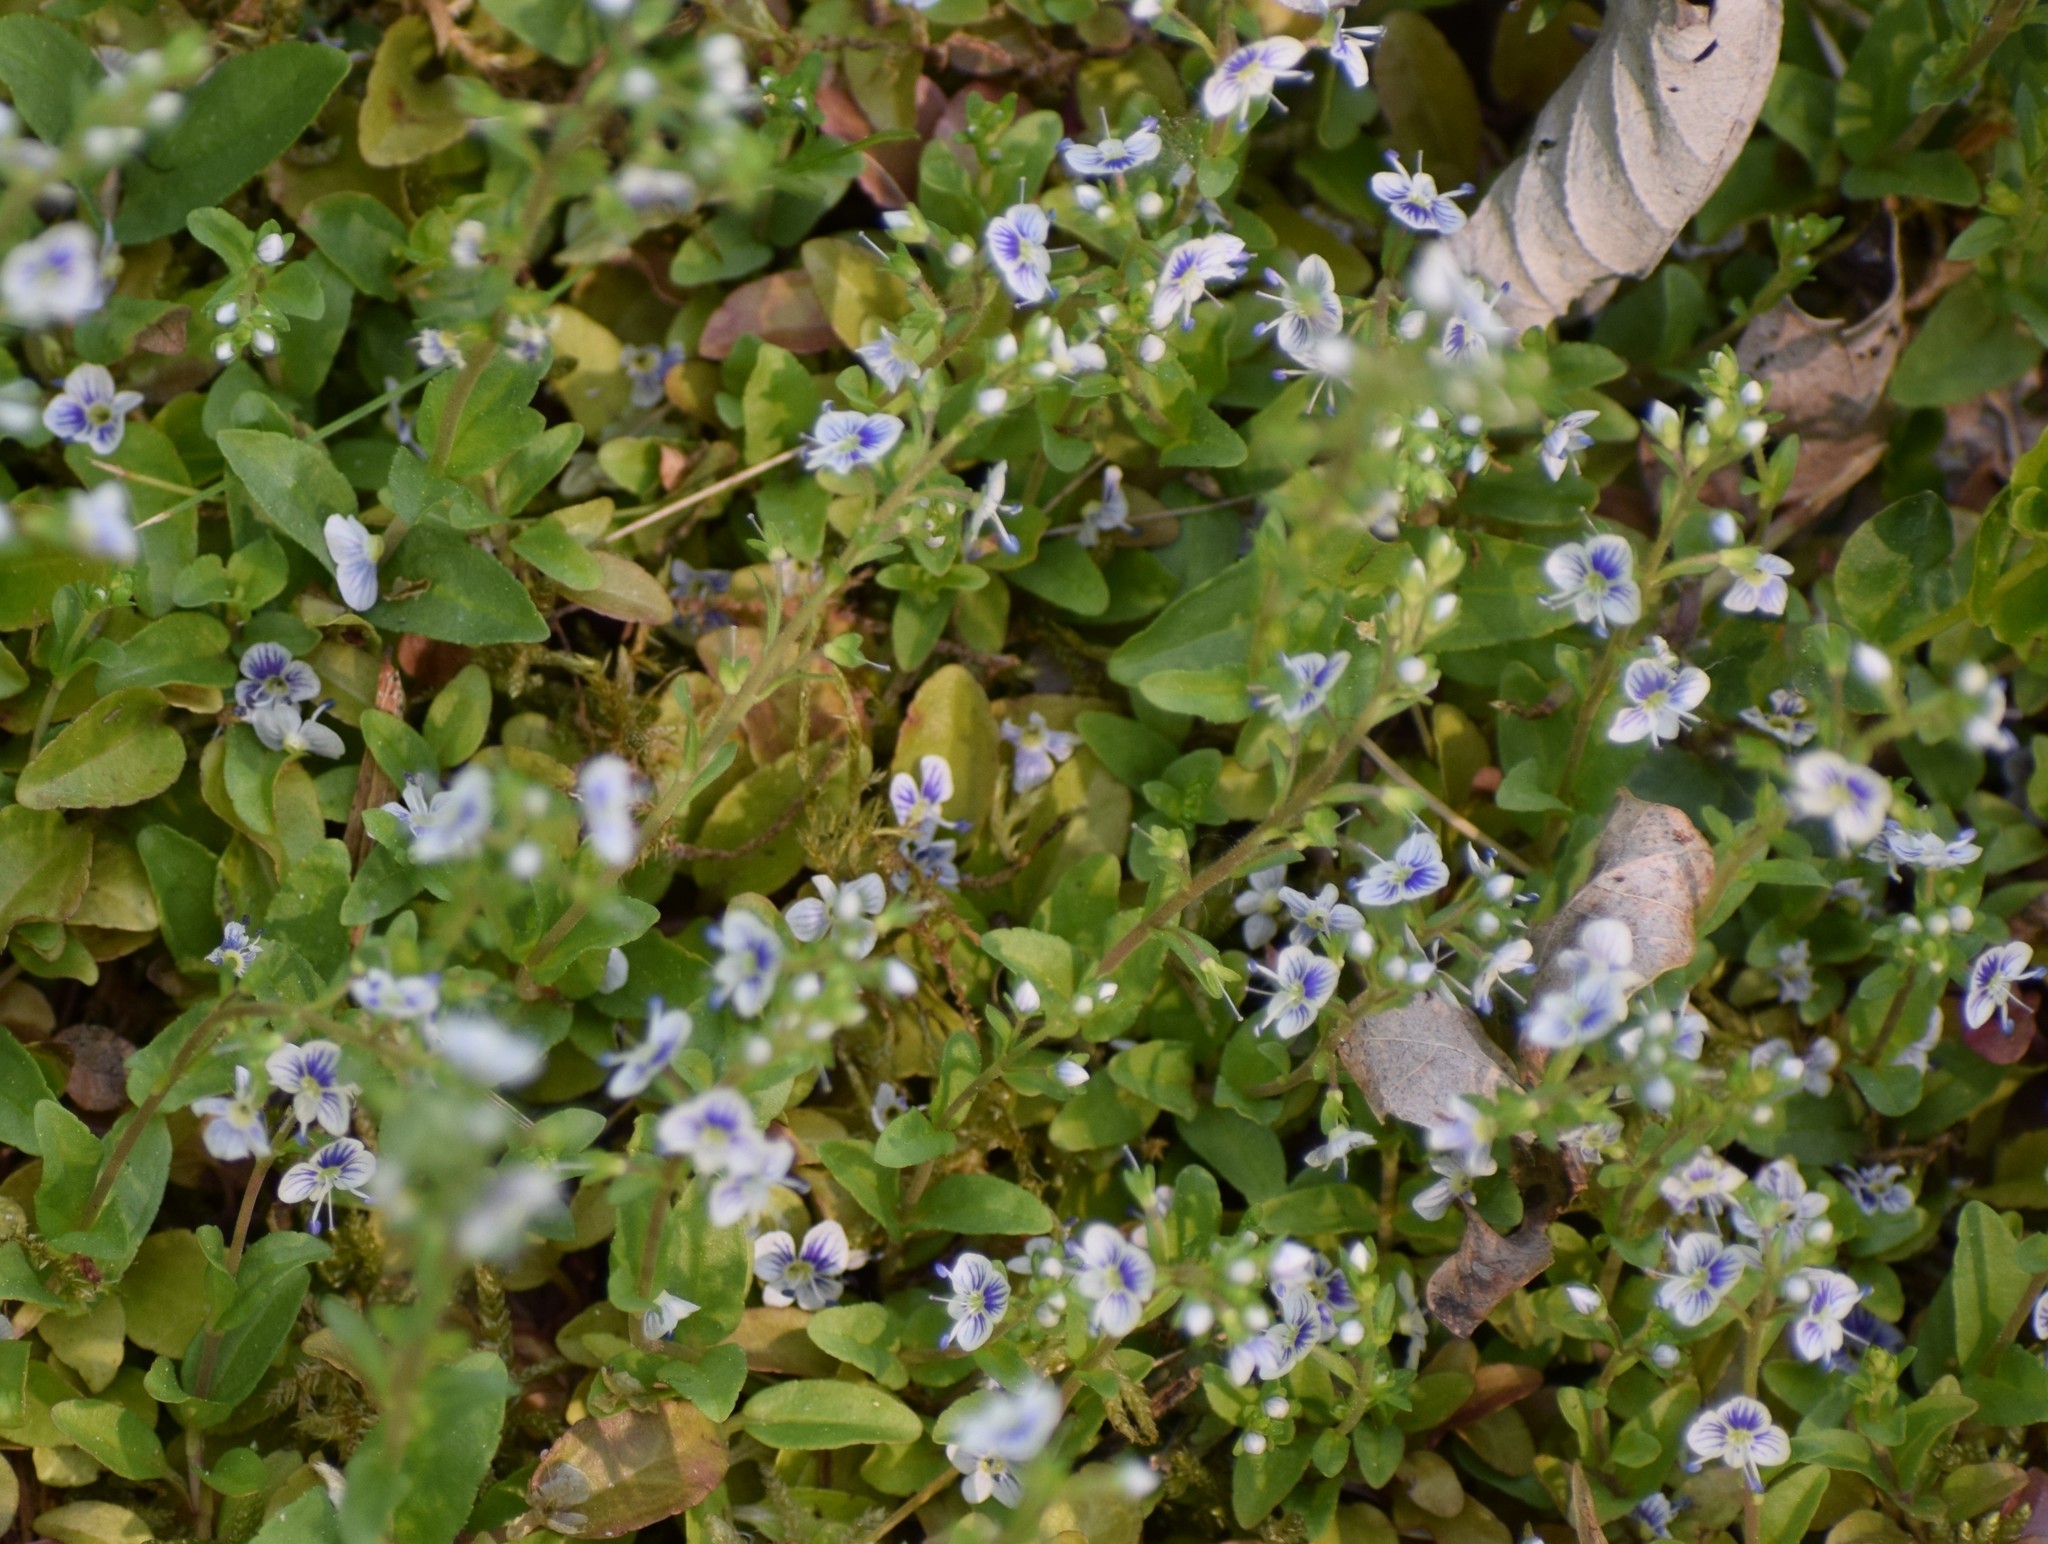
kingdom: Plantae
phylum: Tracheophyta
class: Magnoliopsida
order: Lamiales
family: Plantaginaceae
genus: Veronica
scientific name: Veronica officinalis
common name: Common speedwell
